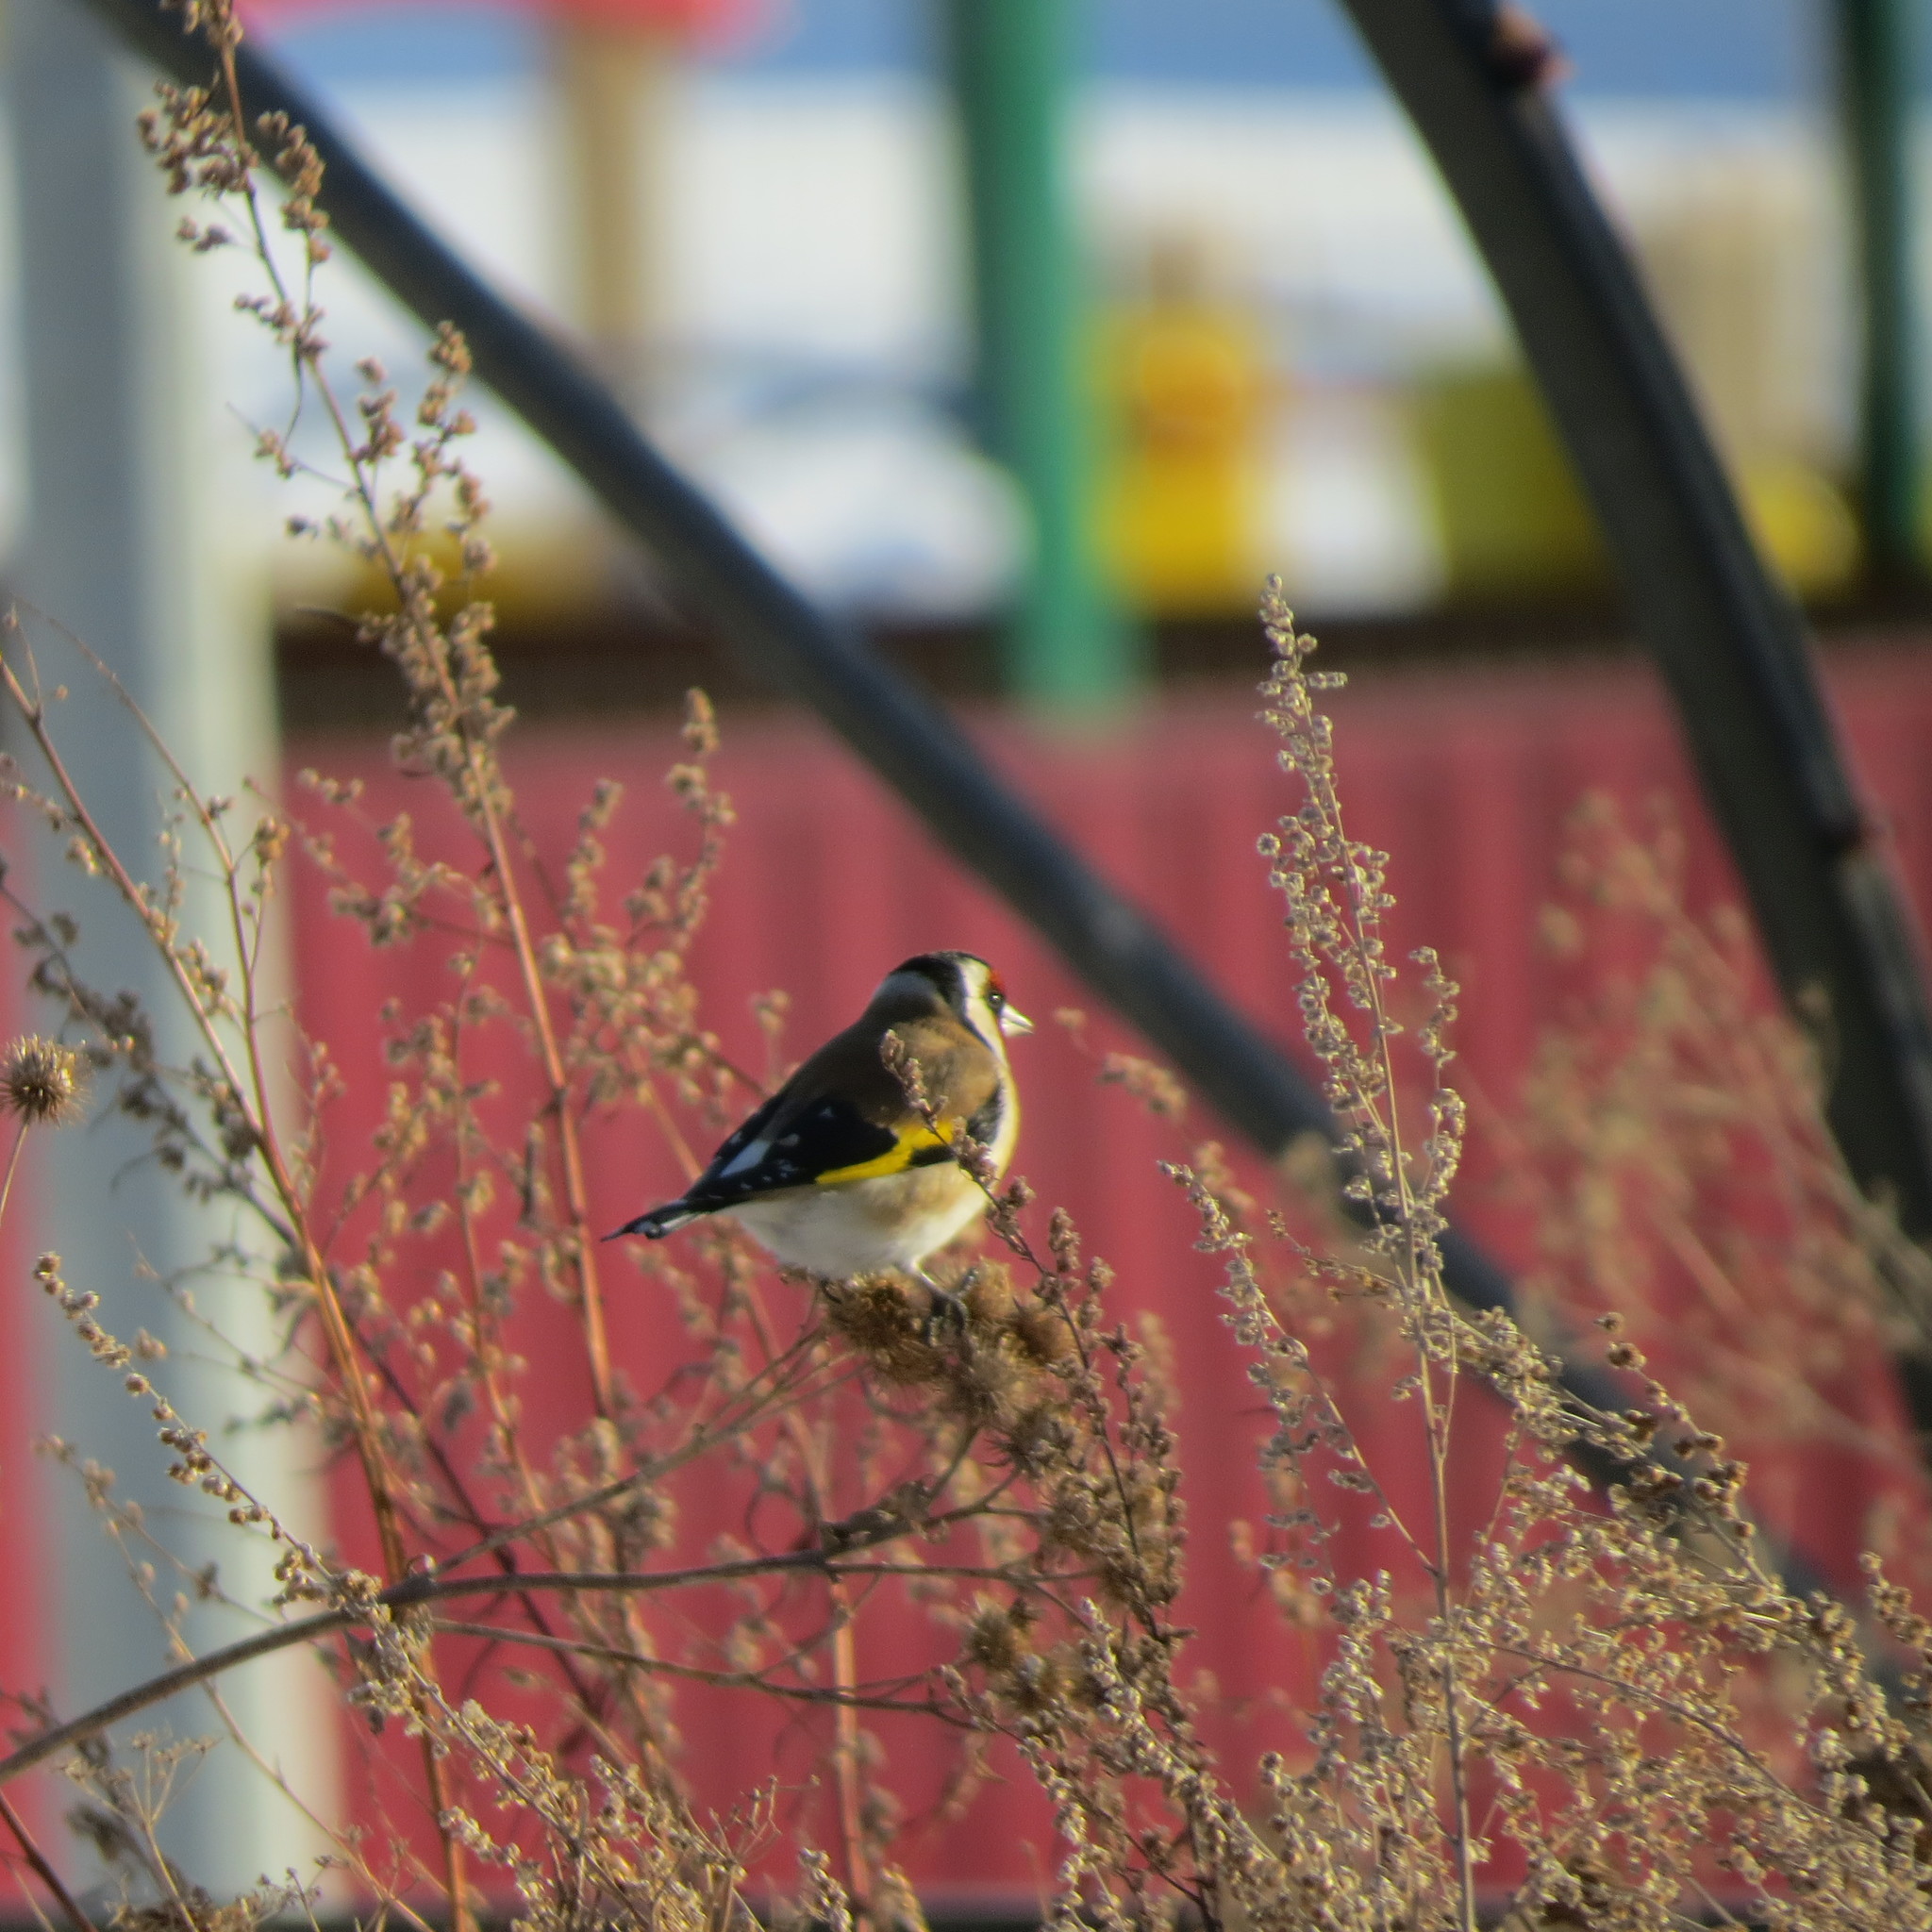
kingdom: Animalia
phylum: Chordata
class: Aves
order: Passeriformes
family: Fringillidae
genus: Carduelis
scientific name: Carduelis carduelis
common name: European goldfinch
